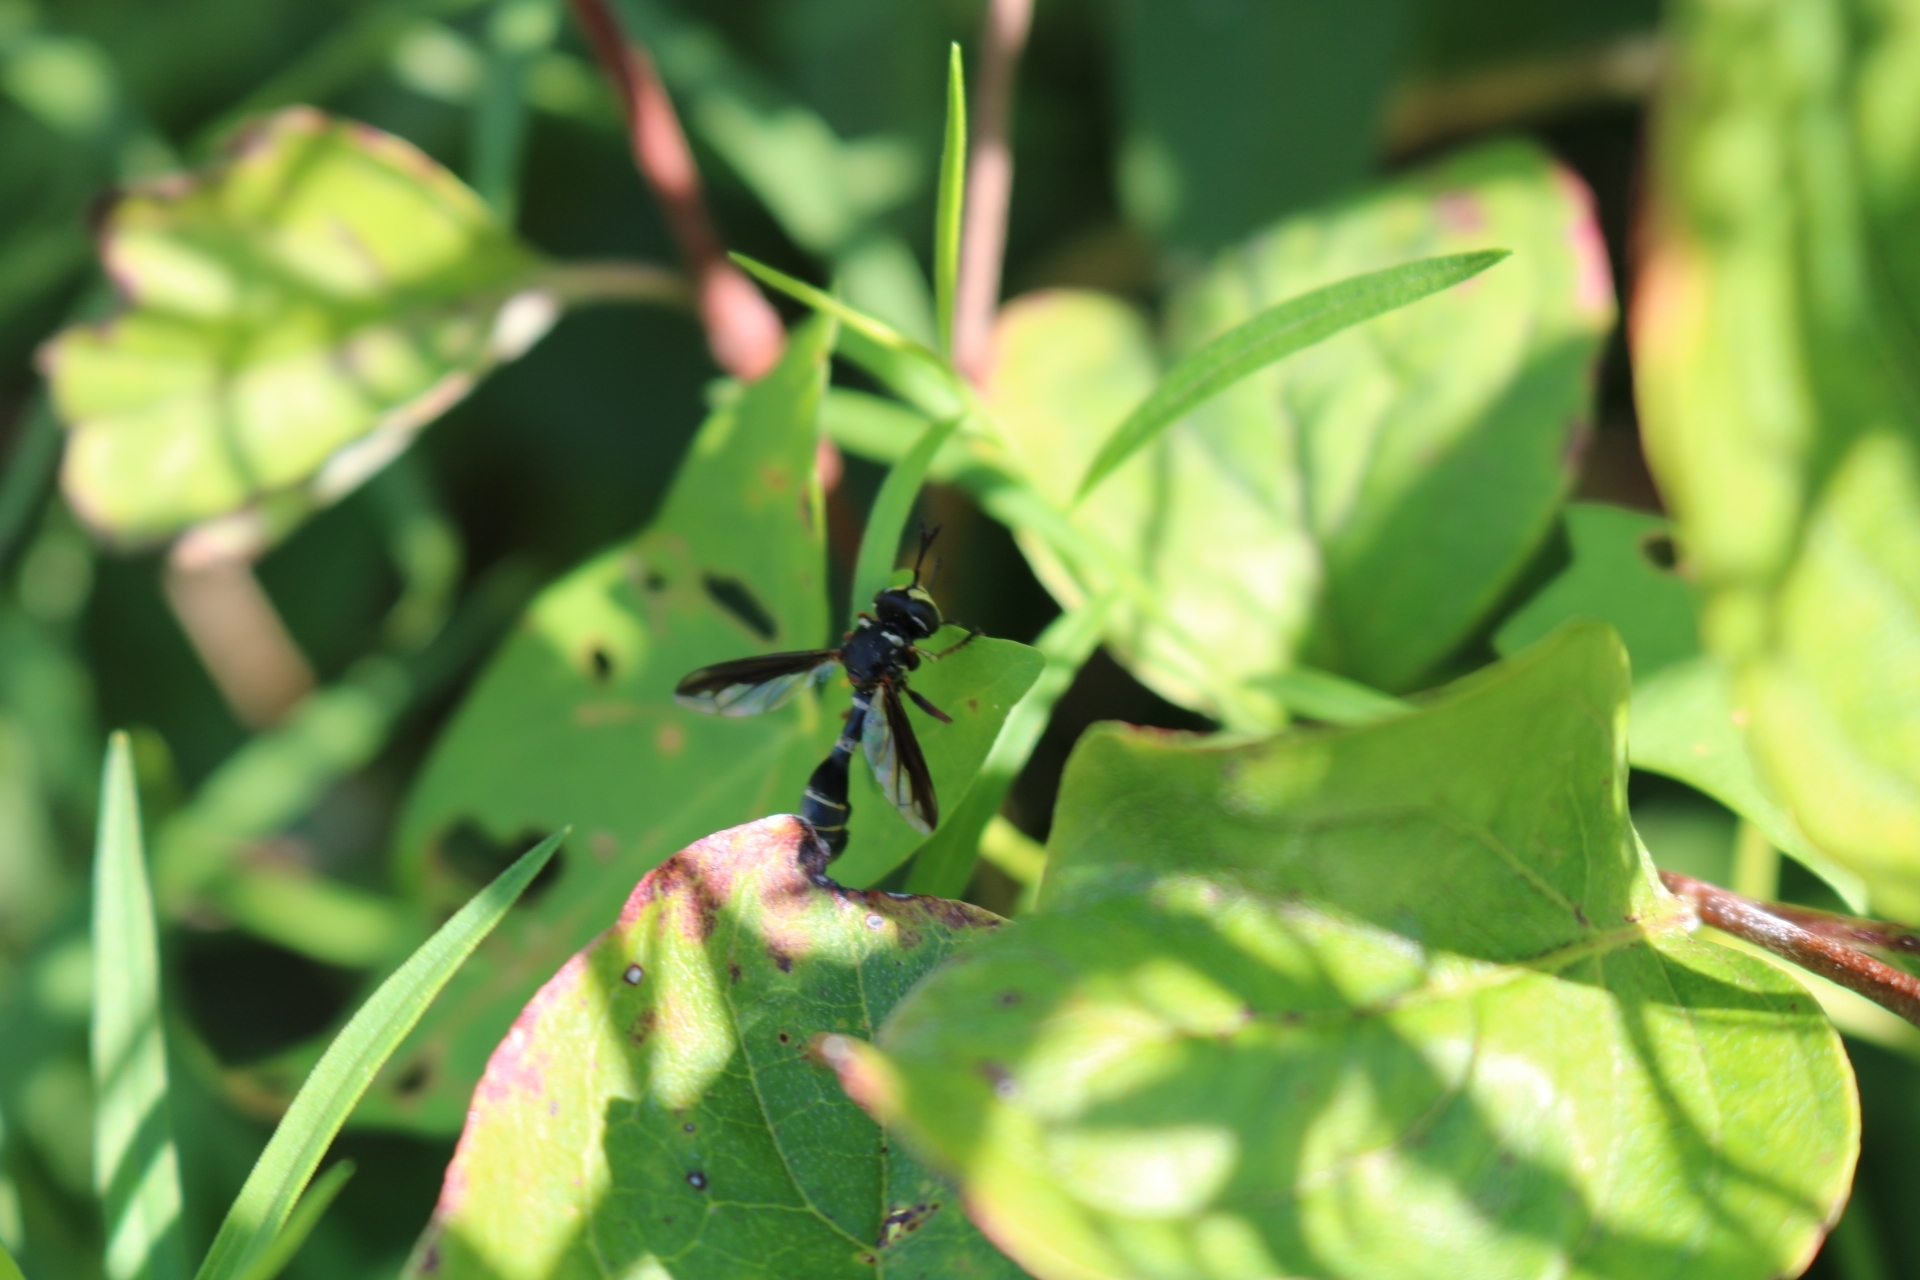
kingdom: Animalia
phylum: Arthropoda
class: Insecta
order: Diptera
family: Conopidae
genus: Physocephala
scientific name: Physocephala marginata
